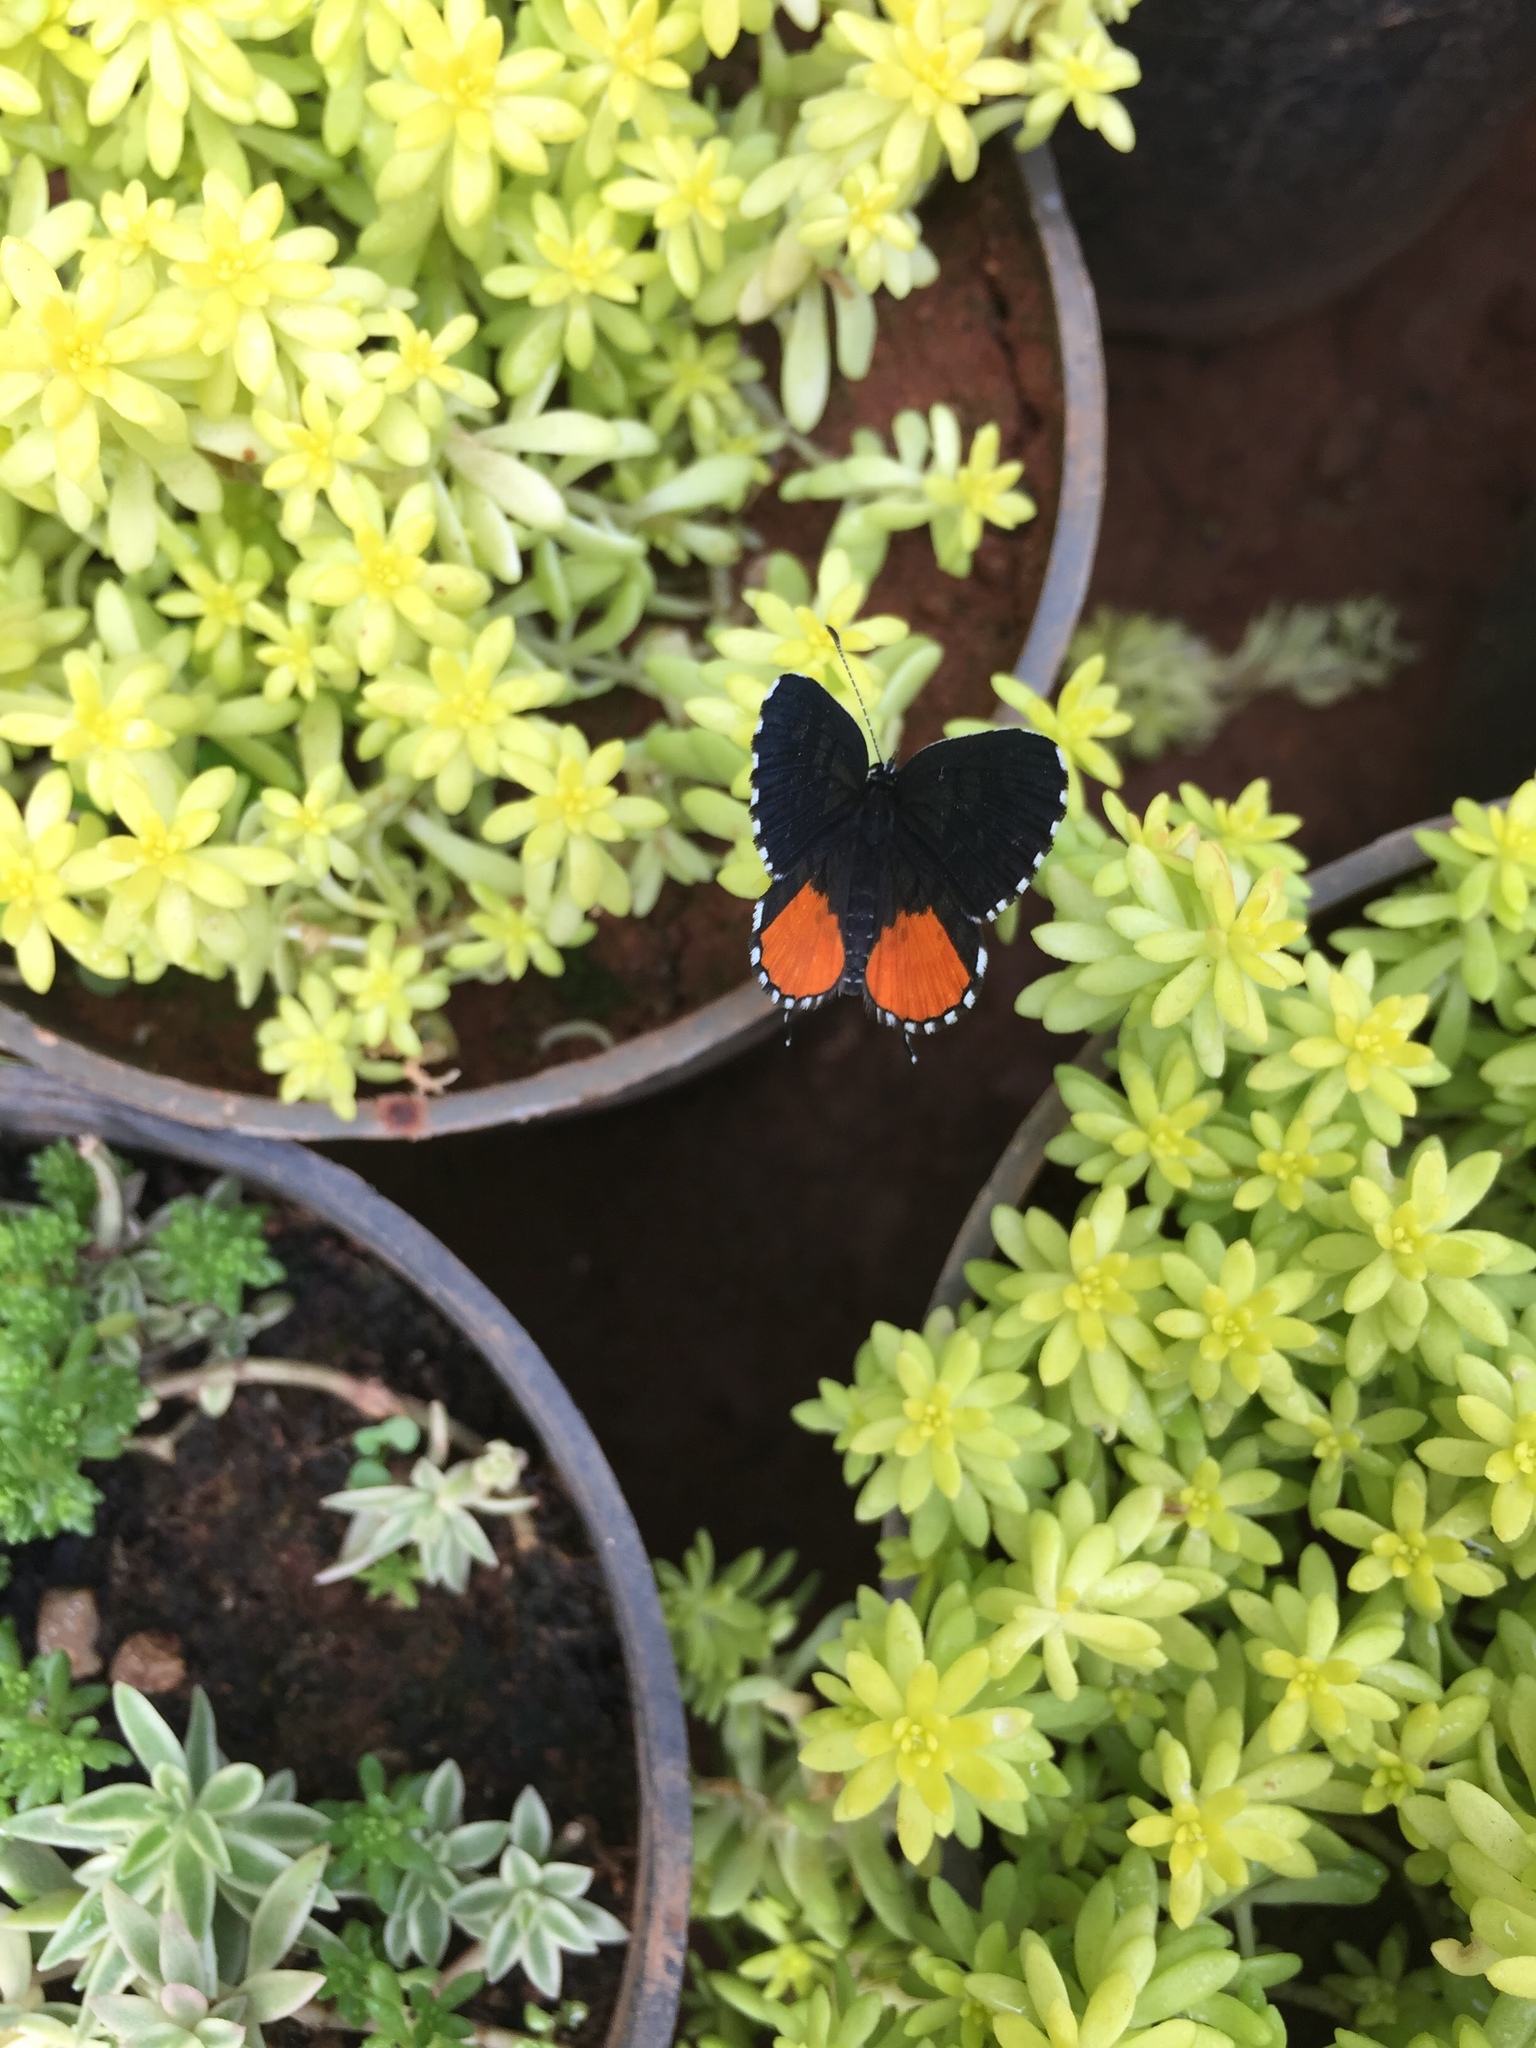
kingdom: Animalia
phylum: Arthropoda
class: Insecta
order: Lepidoptera
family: Lycaenidae
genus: Talicada
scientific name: Talicada nyseus
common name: Red pierrot
